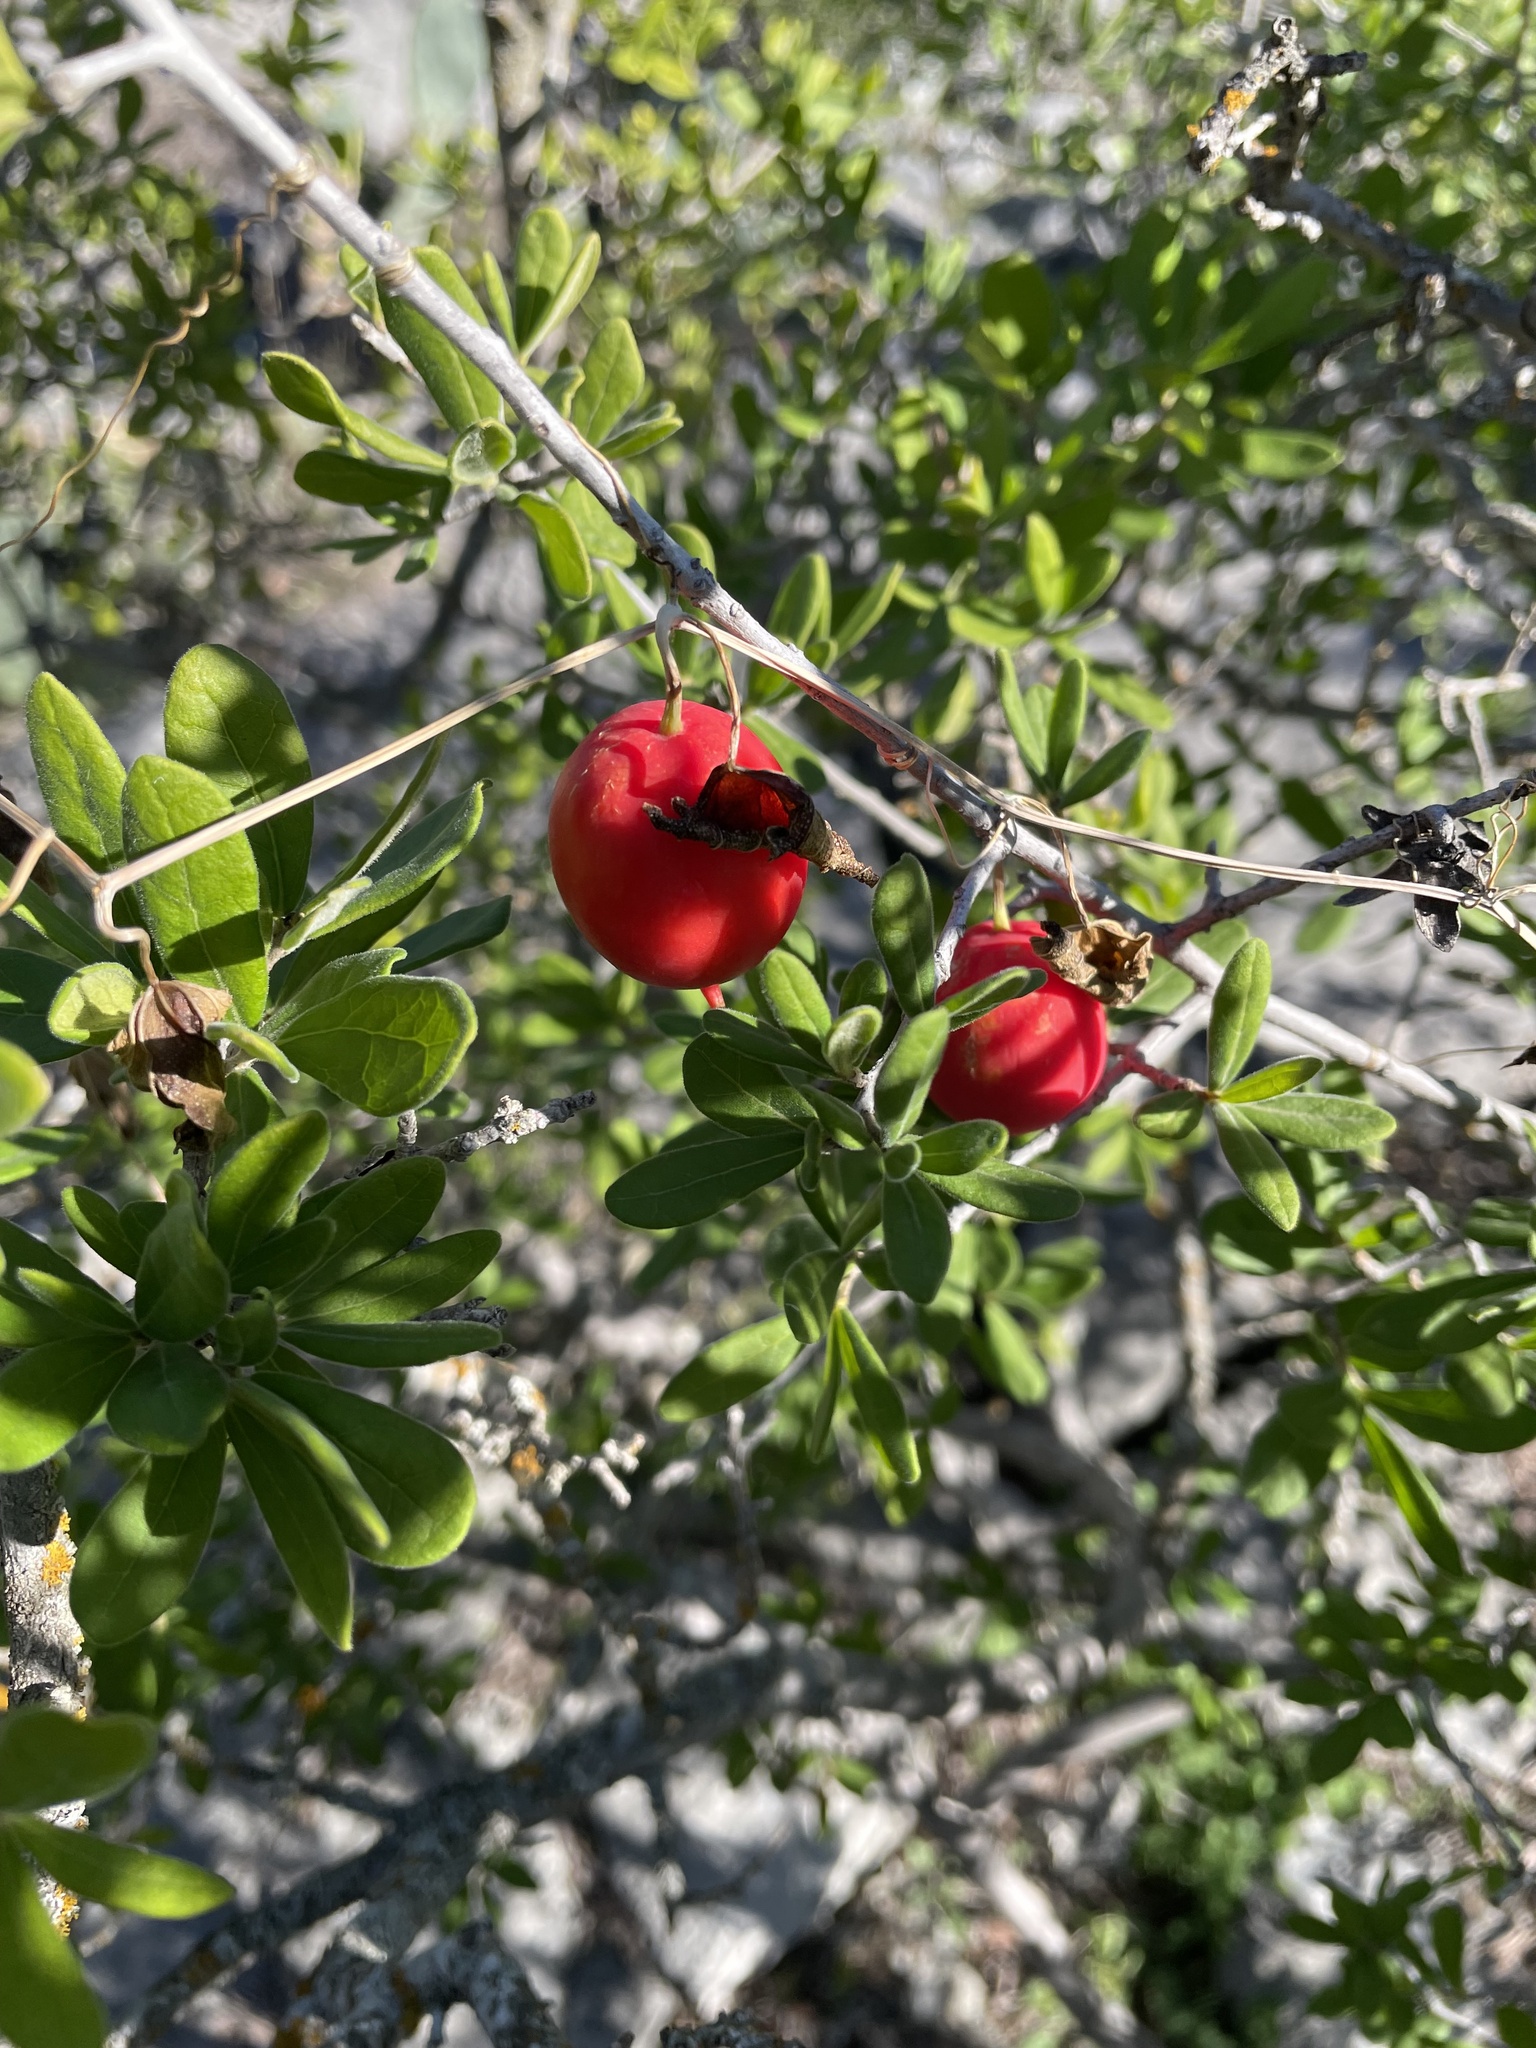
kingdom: Plantae
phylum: Tracheophyta
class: Magnoliopsida
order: Cucurbitales
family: Cucurbitaceae
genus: Ibervillea
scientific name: Ibervillea lindheimeri
